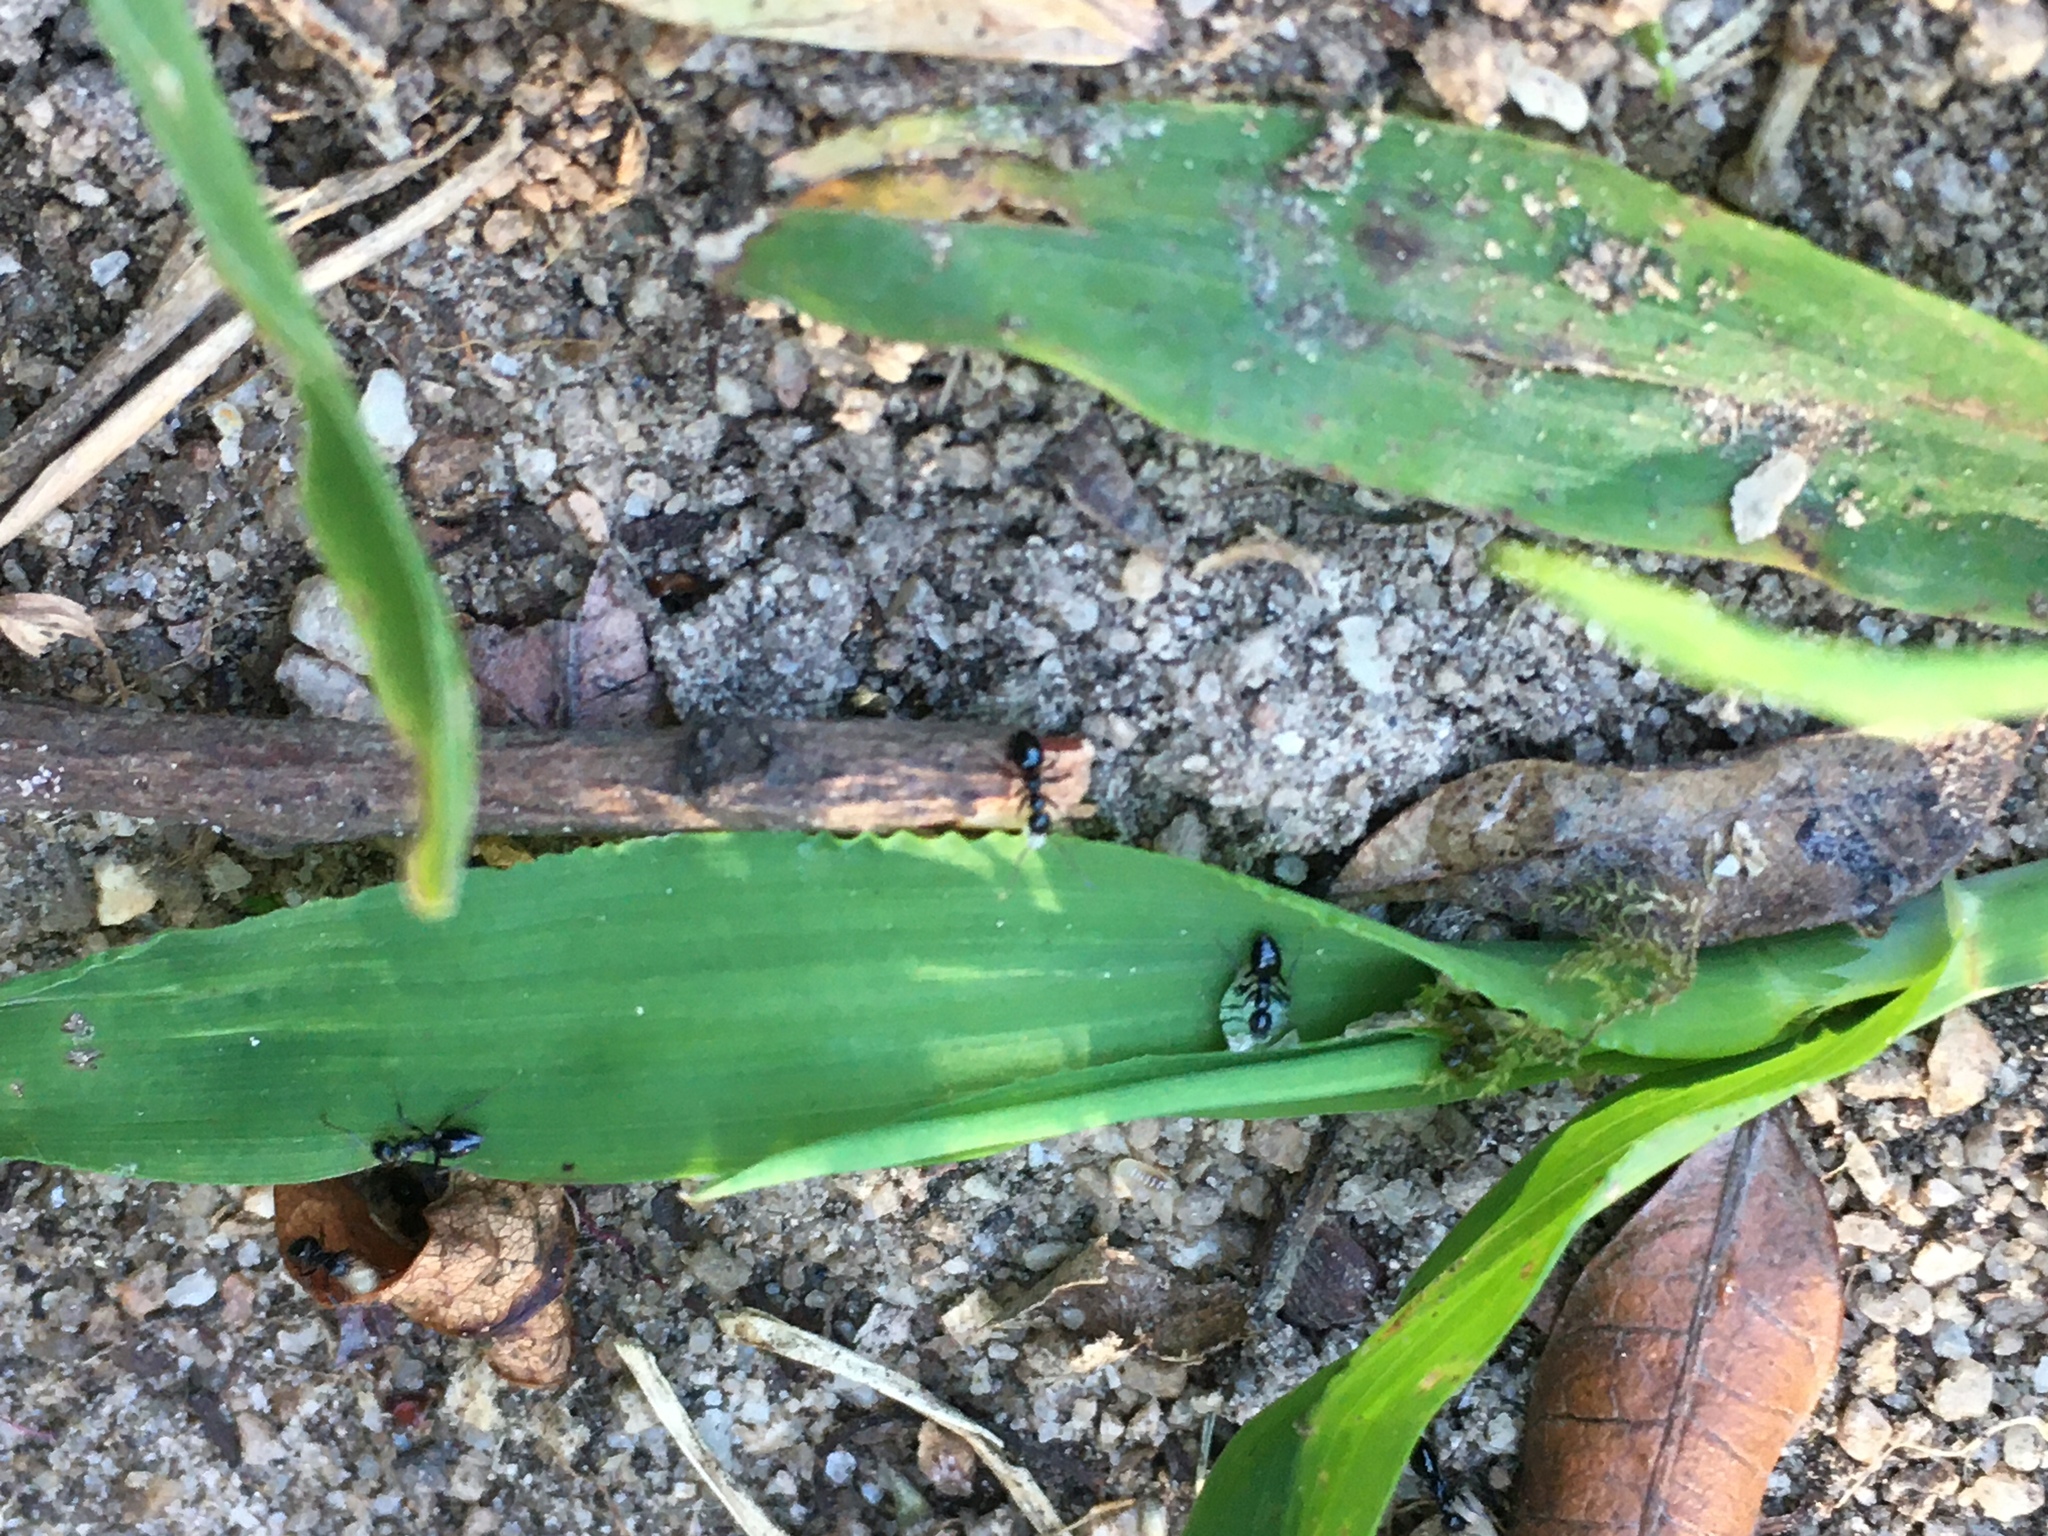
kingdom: Animalia
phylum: Arthropoda
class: Insecta
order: Hymenoptera
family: Formicidae
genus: Lepisiota
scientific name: Lepisiota capensis
